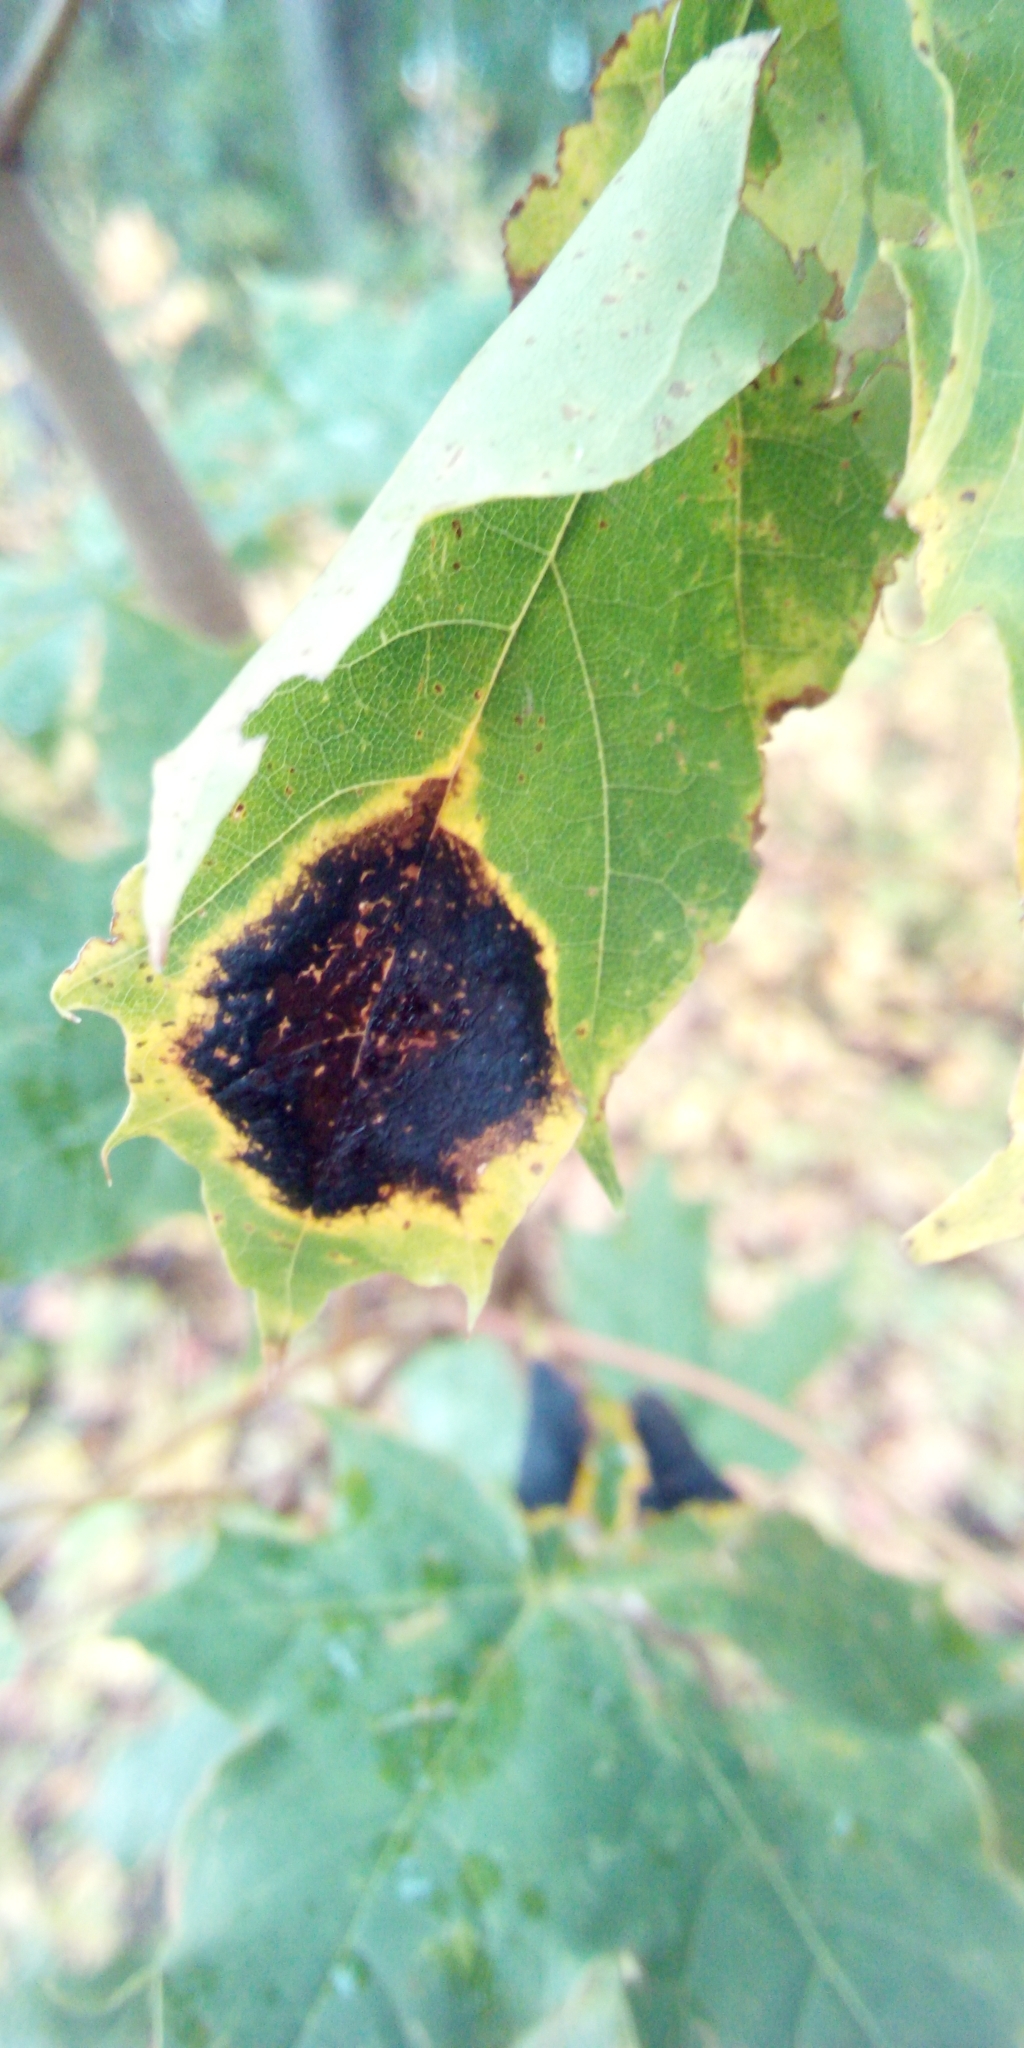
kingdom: Fungi
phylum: Ascomycota
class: Leotiomycetes
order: Rhytismatales
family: Rhytismataceae
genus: Rhytisma
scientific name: Rhytisma acerinum
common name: European tar spot
